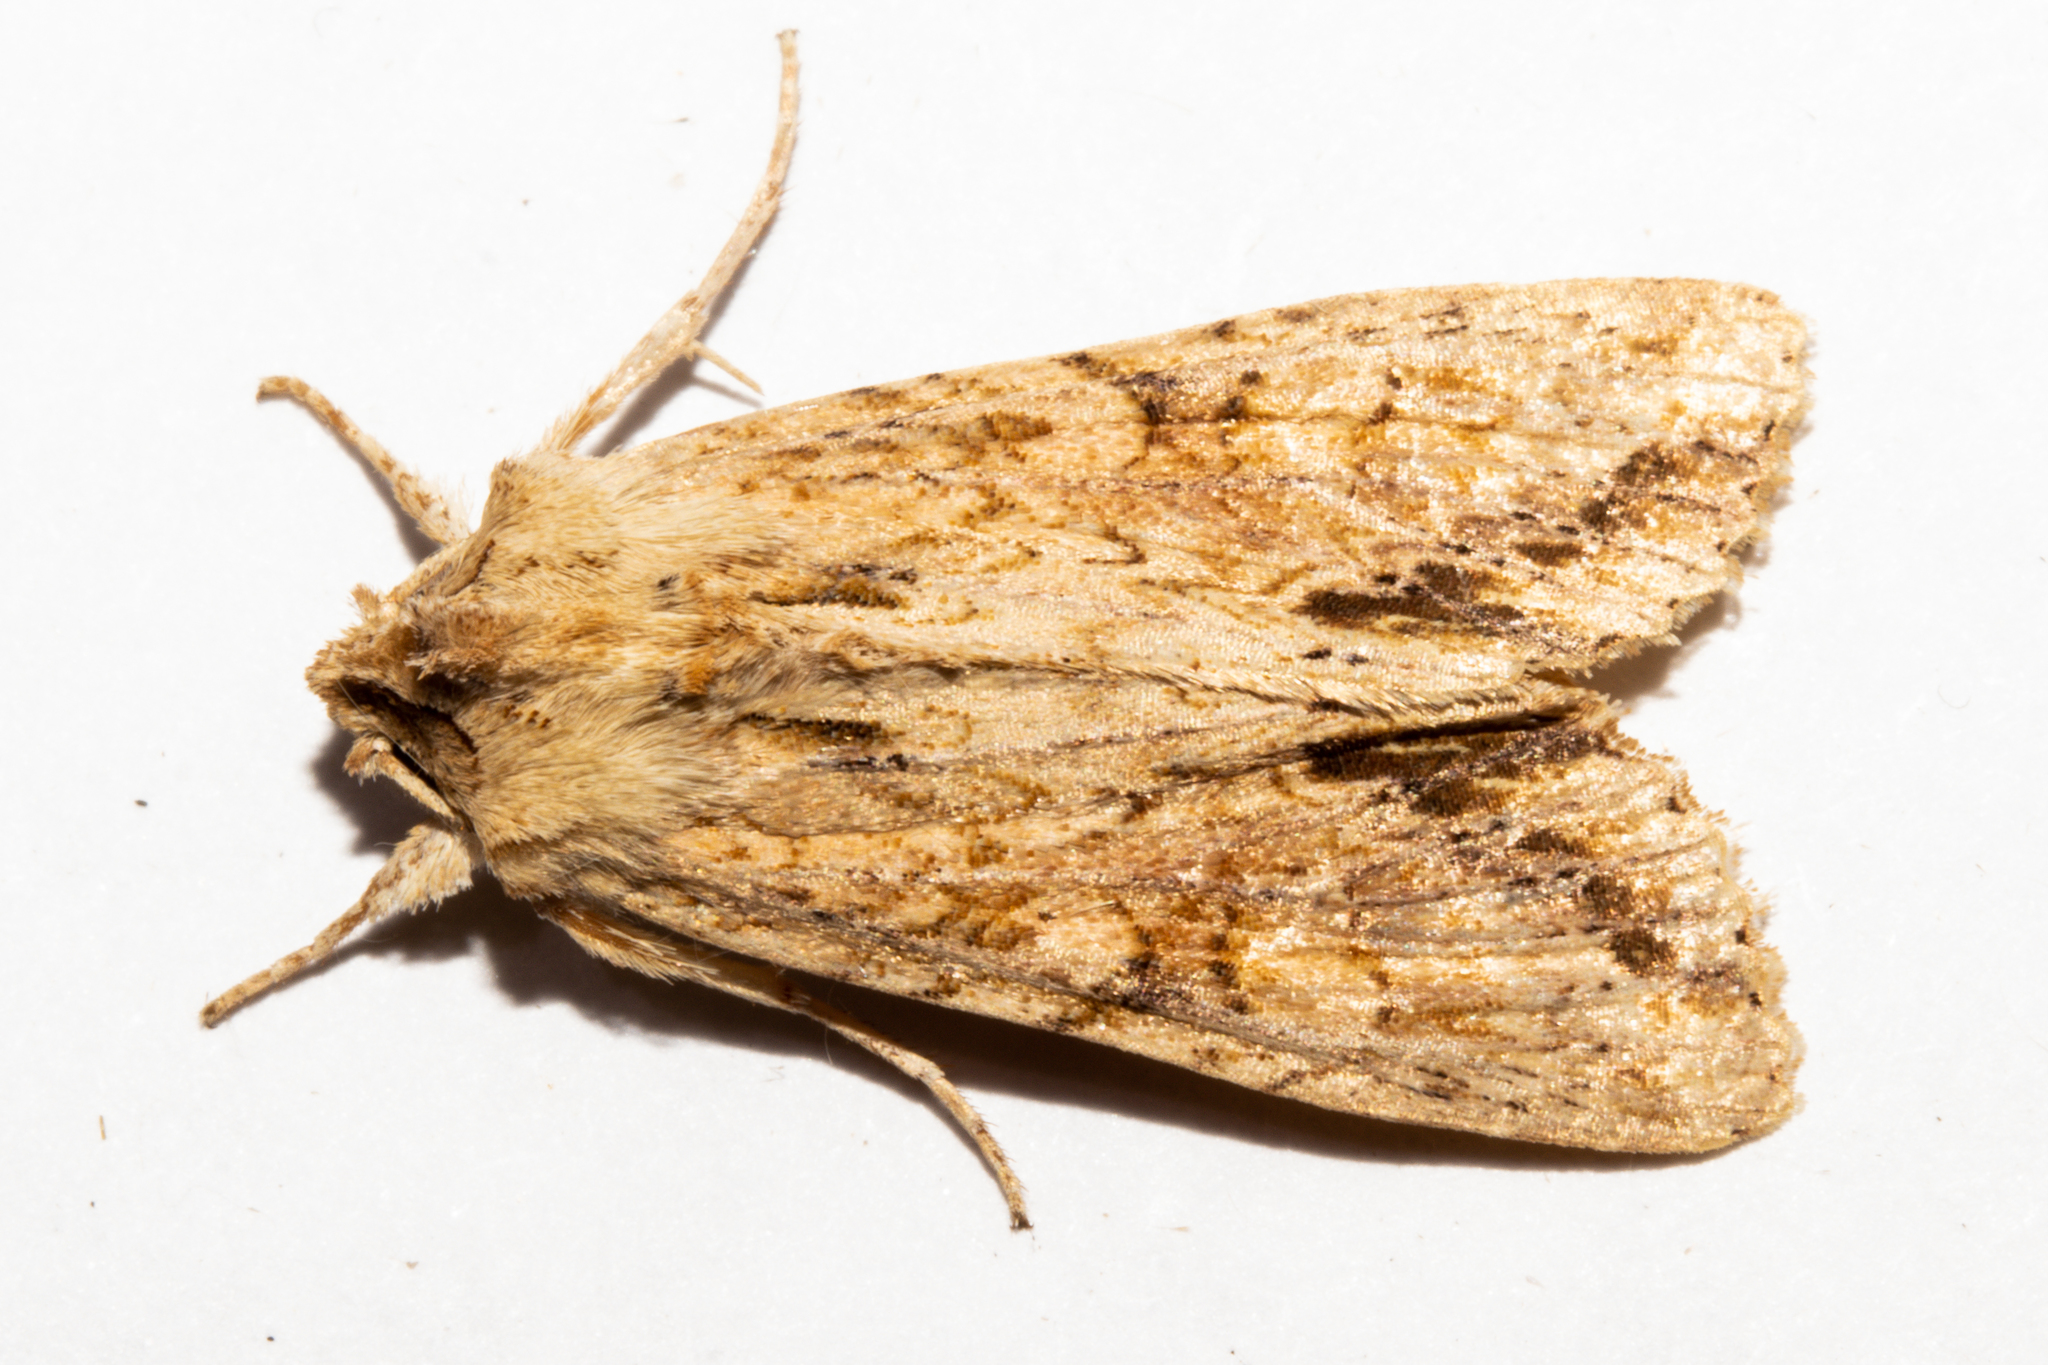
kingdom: Animalia
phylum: Arthropoda
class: Insecta
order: Lepidoptera
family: Noctuidae
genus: Ichneutica
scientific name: Ichneutica mollis
